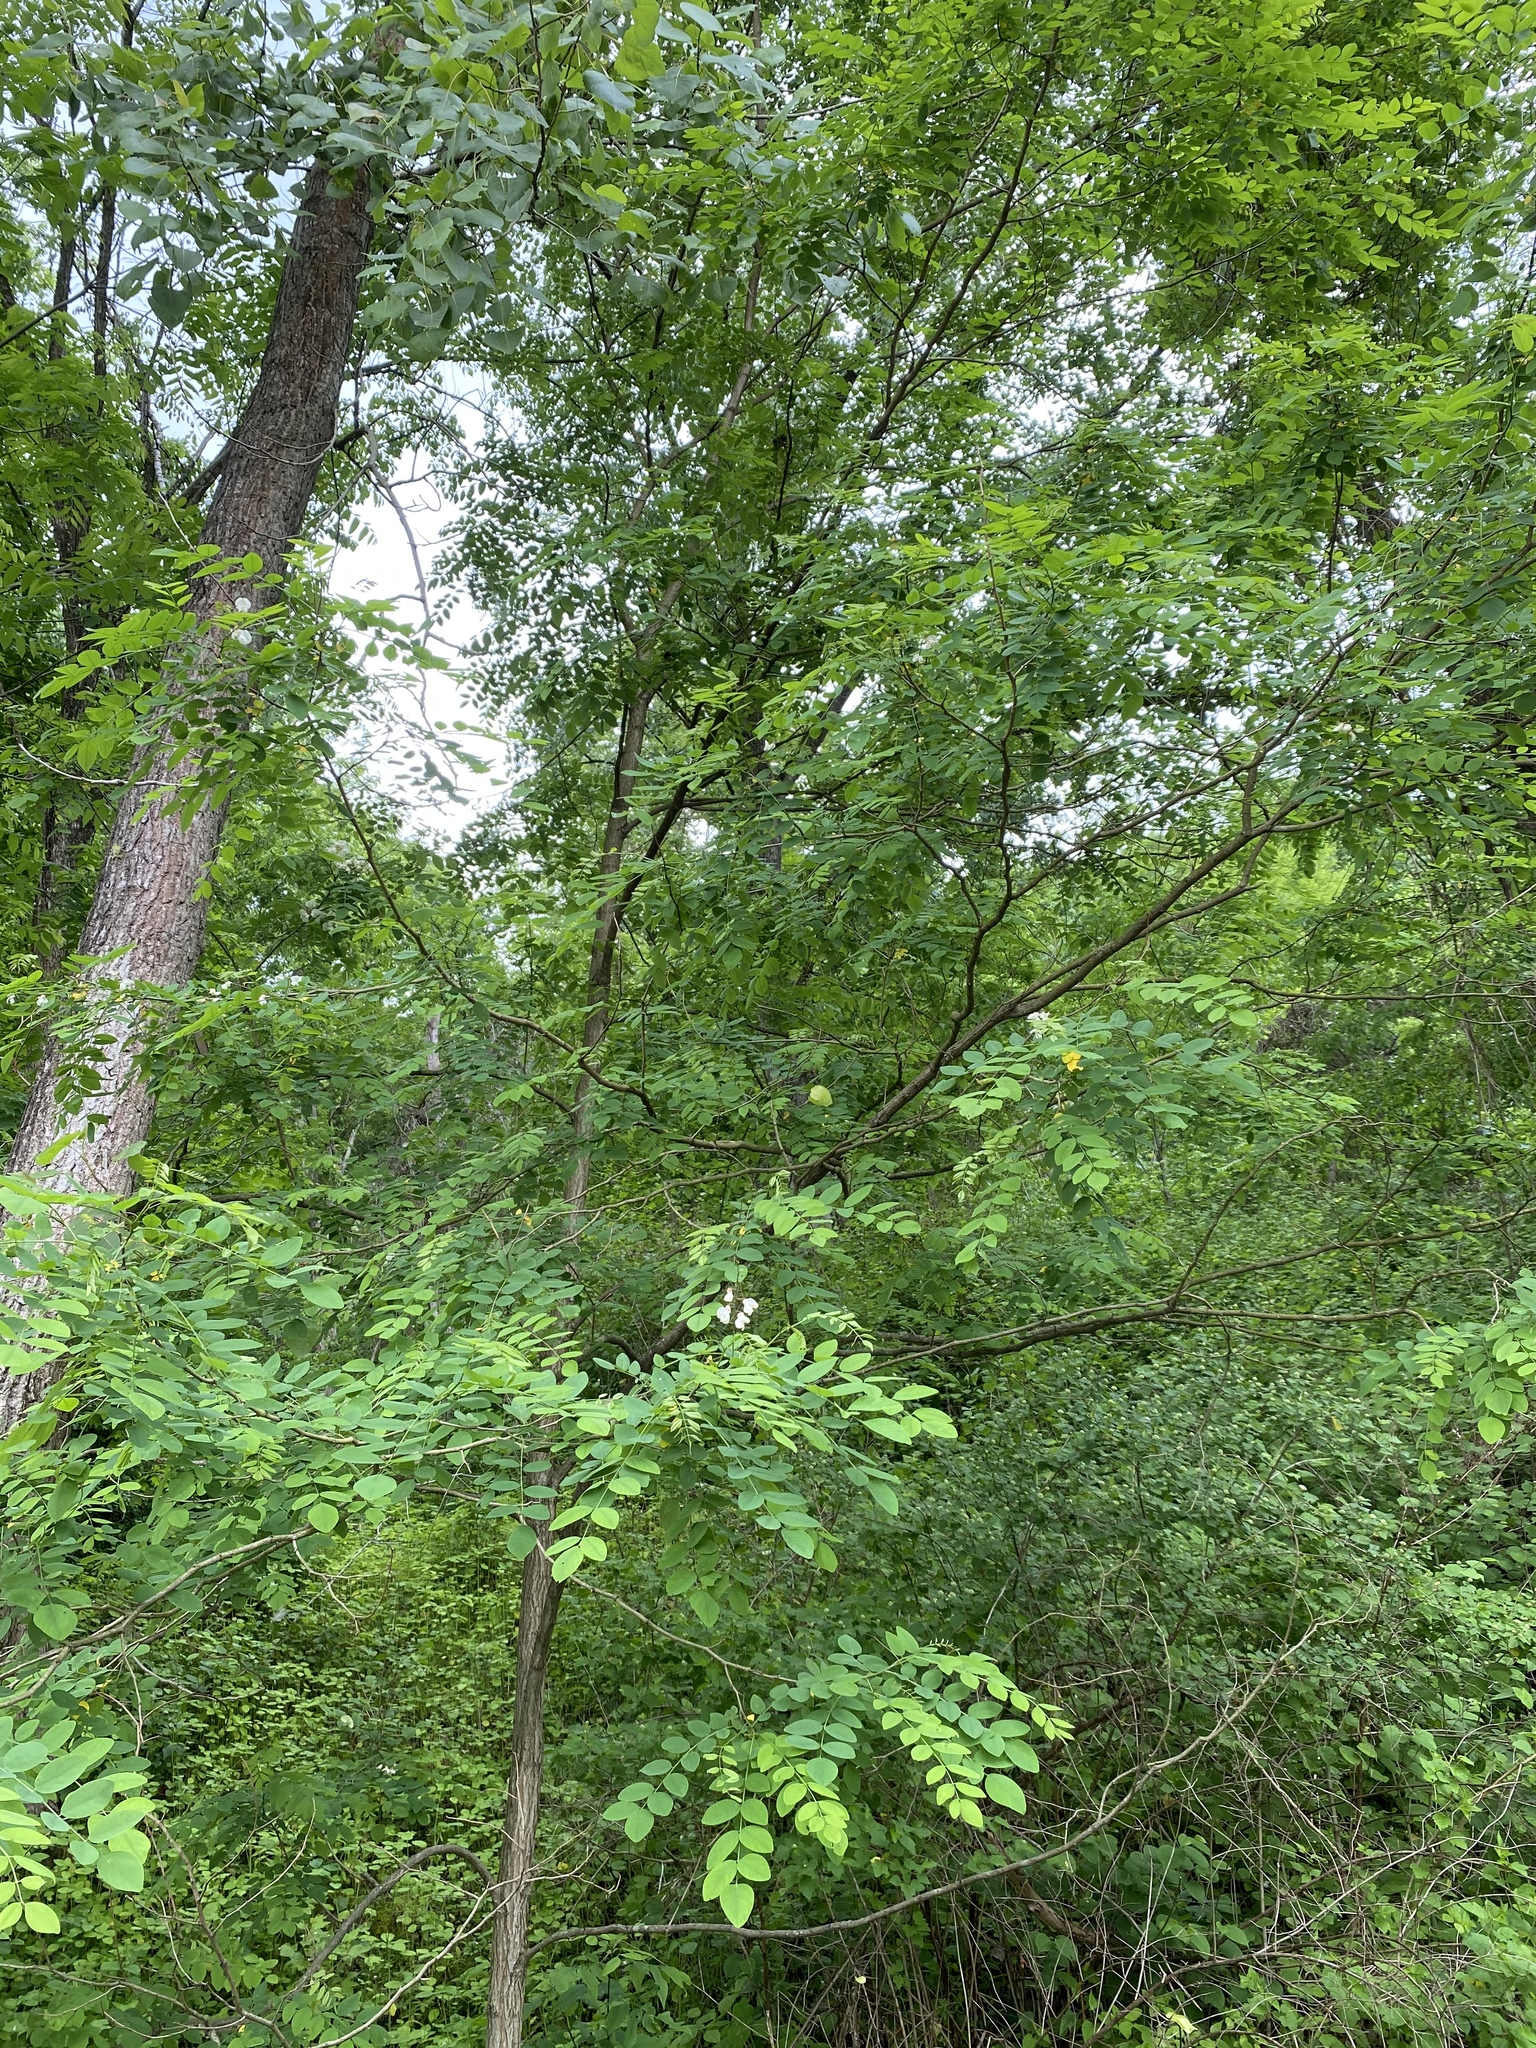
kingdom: Plantae
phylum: Tracheophyta
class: Magnoliopsida
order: Fabales
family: Fabaceae
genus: Robinia
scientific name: Robinia pseudoacacia
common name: Black locust
